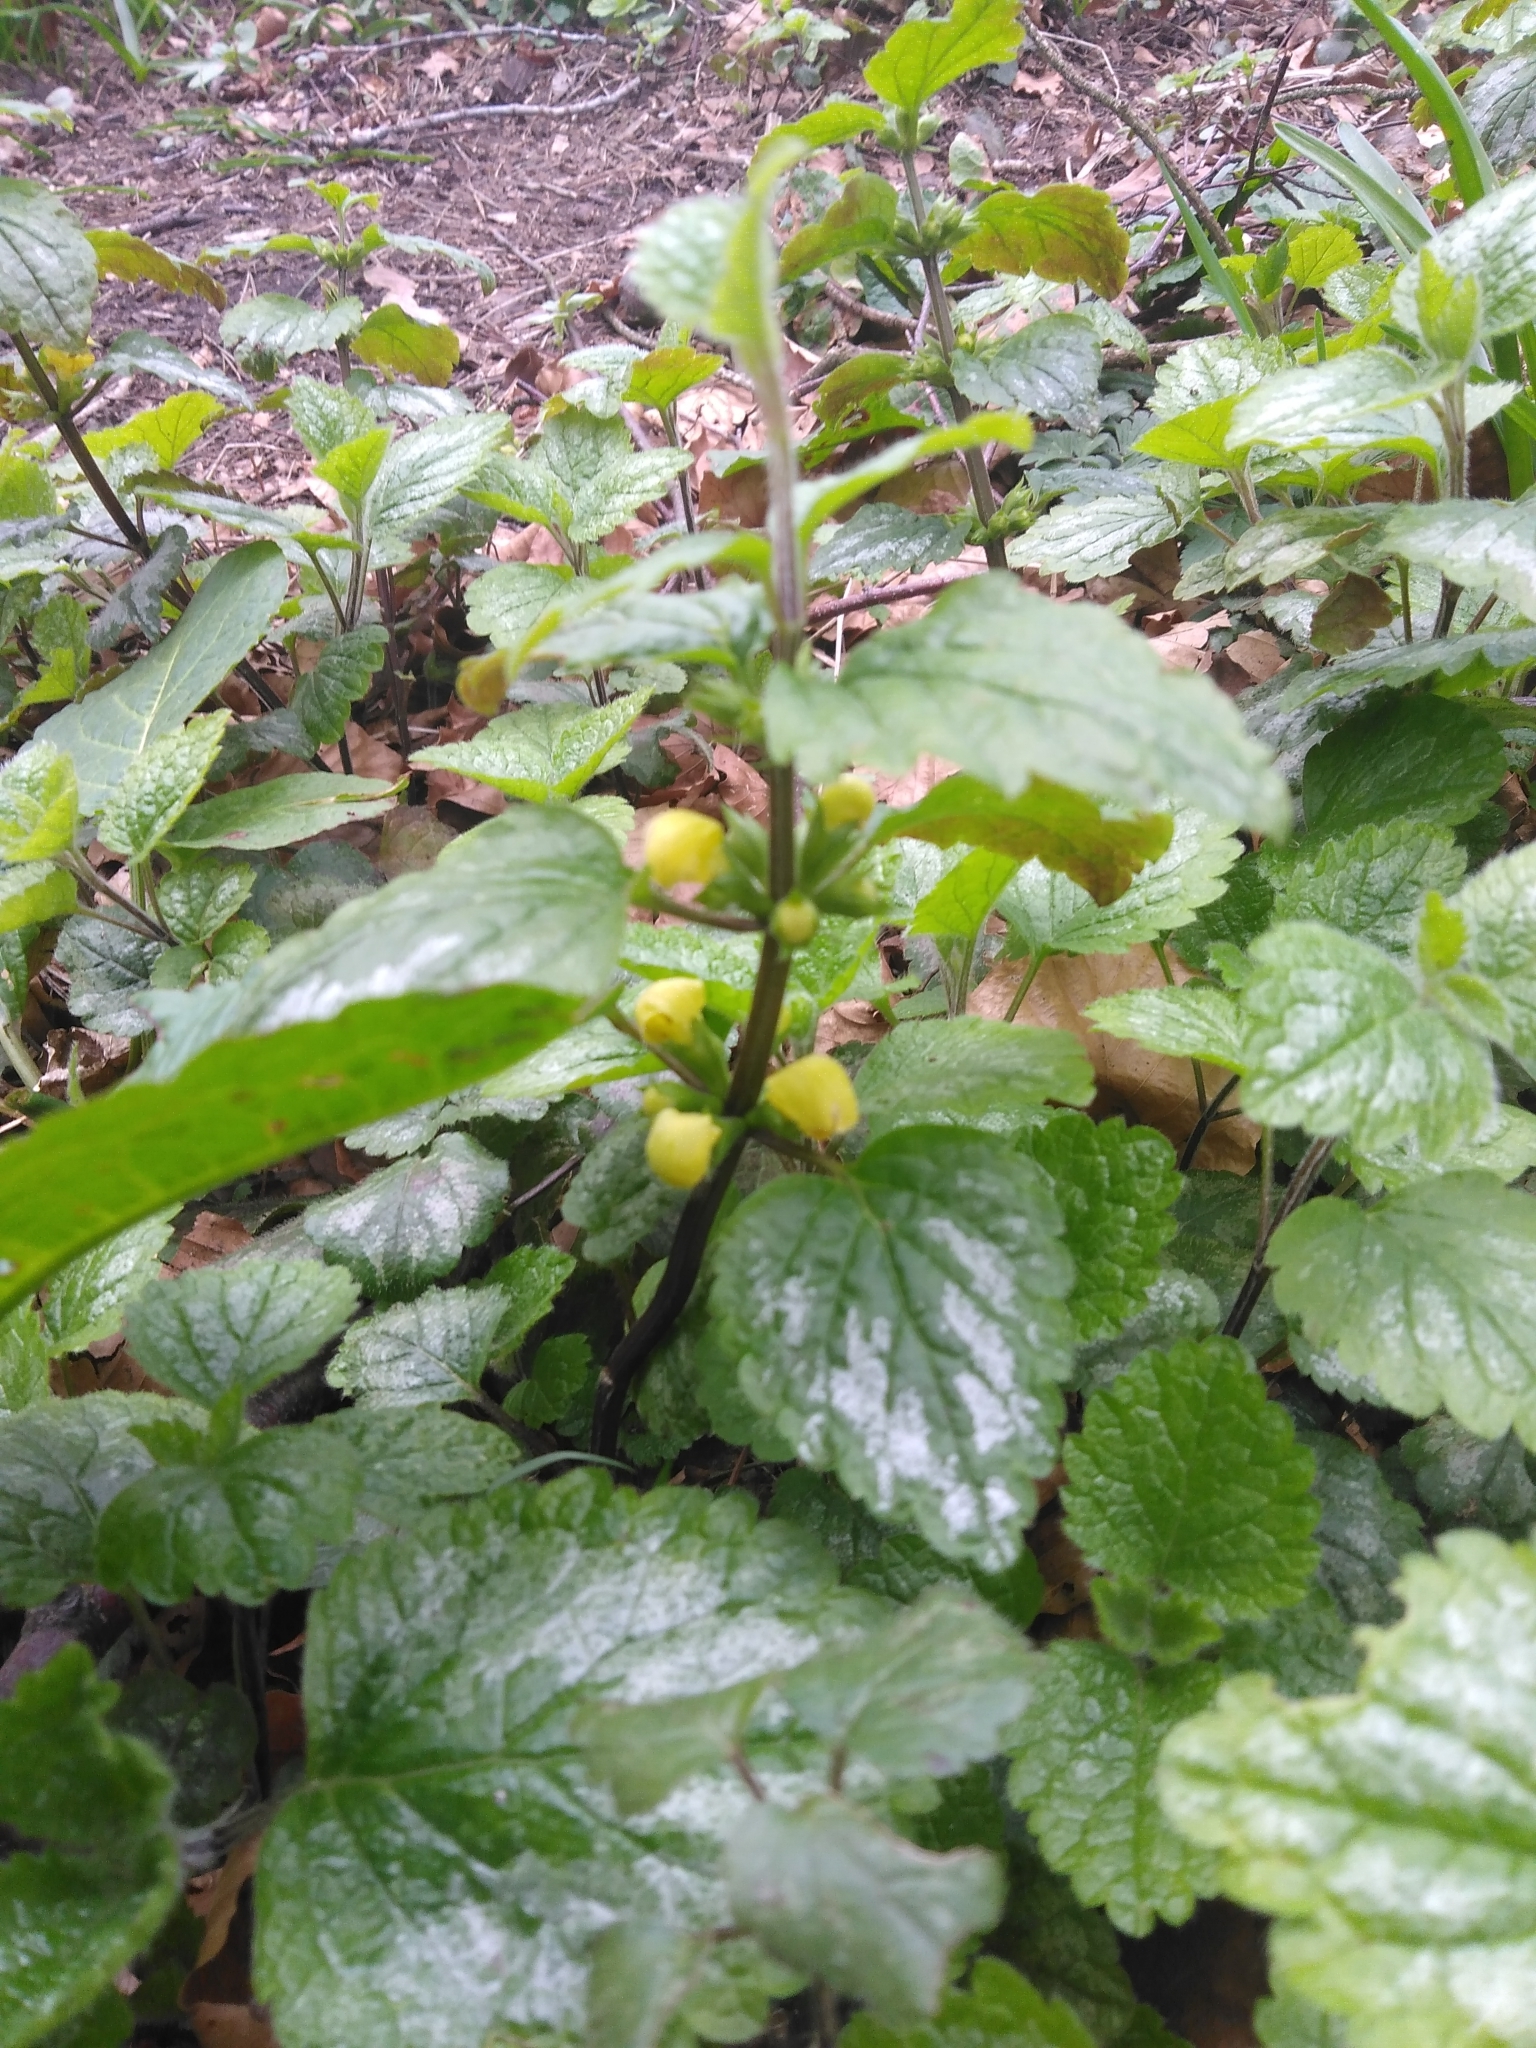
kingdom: Plantae
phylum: Tracheophyta
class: Magnoliopsida
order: Lamiales
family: Lamiaceae
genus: Lamium
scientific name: Lamium galeobdolon
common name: Yellow archangel
